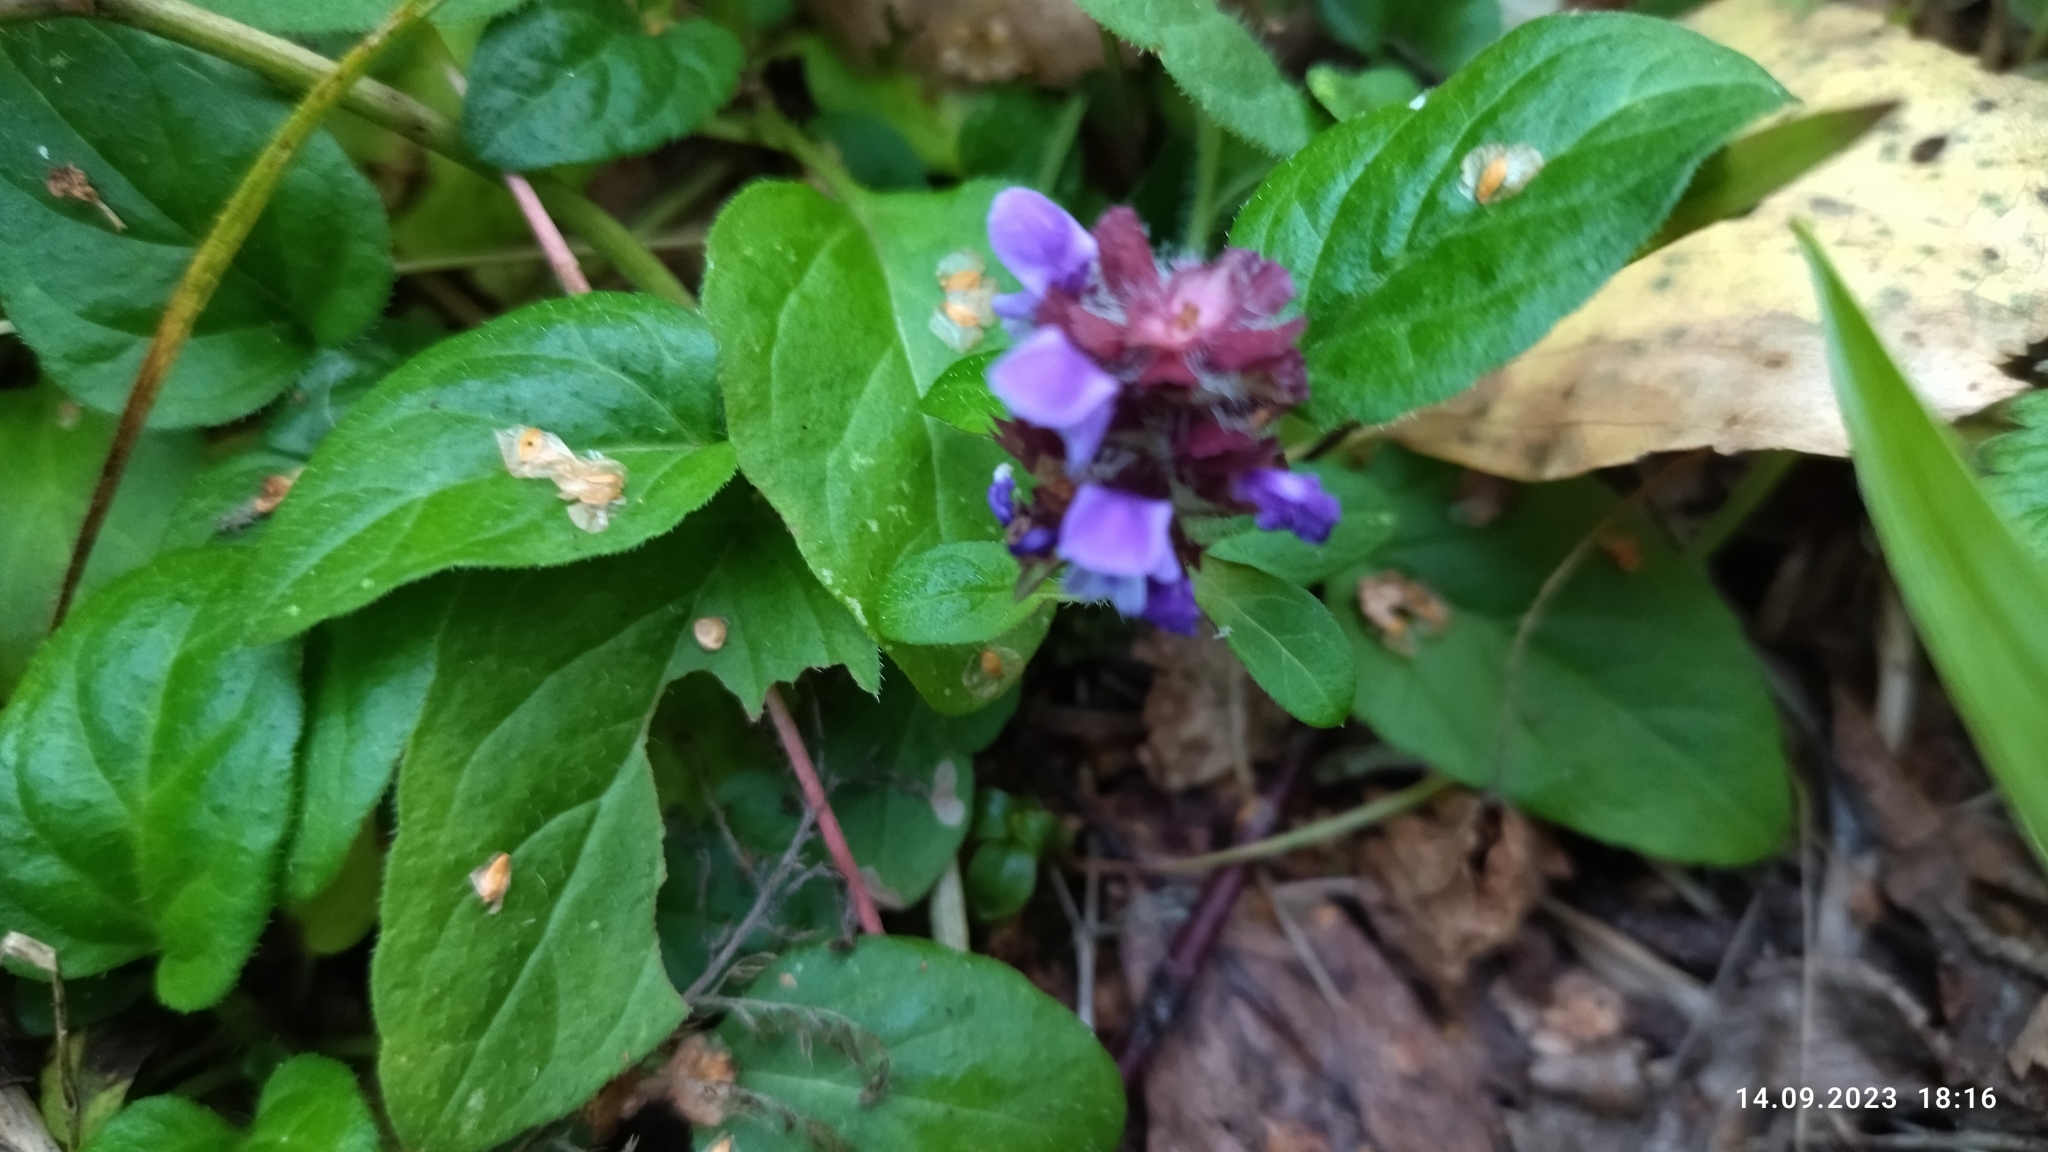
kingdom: Plantae
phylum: Tracheophyta
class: Magnoliopsida
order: Lamiales
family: Lamiaceae
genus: Prunella
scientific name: Prunella vulgaris
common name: Heal-all
